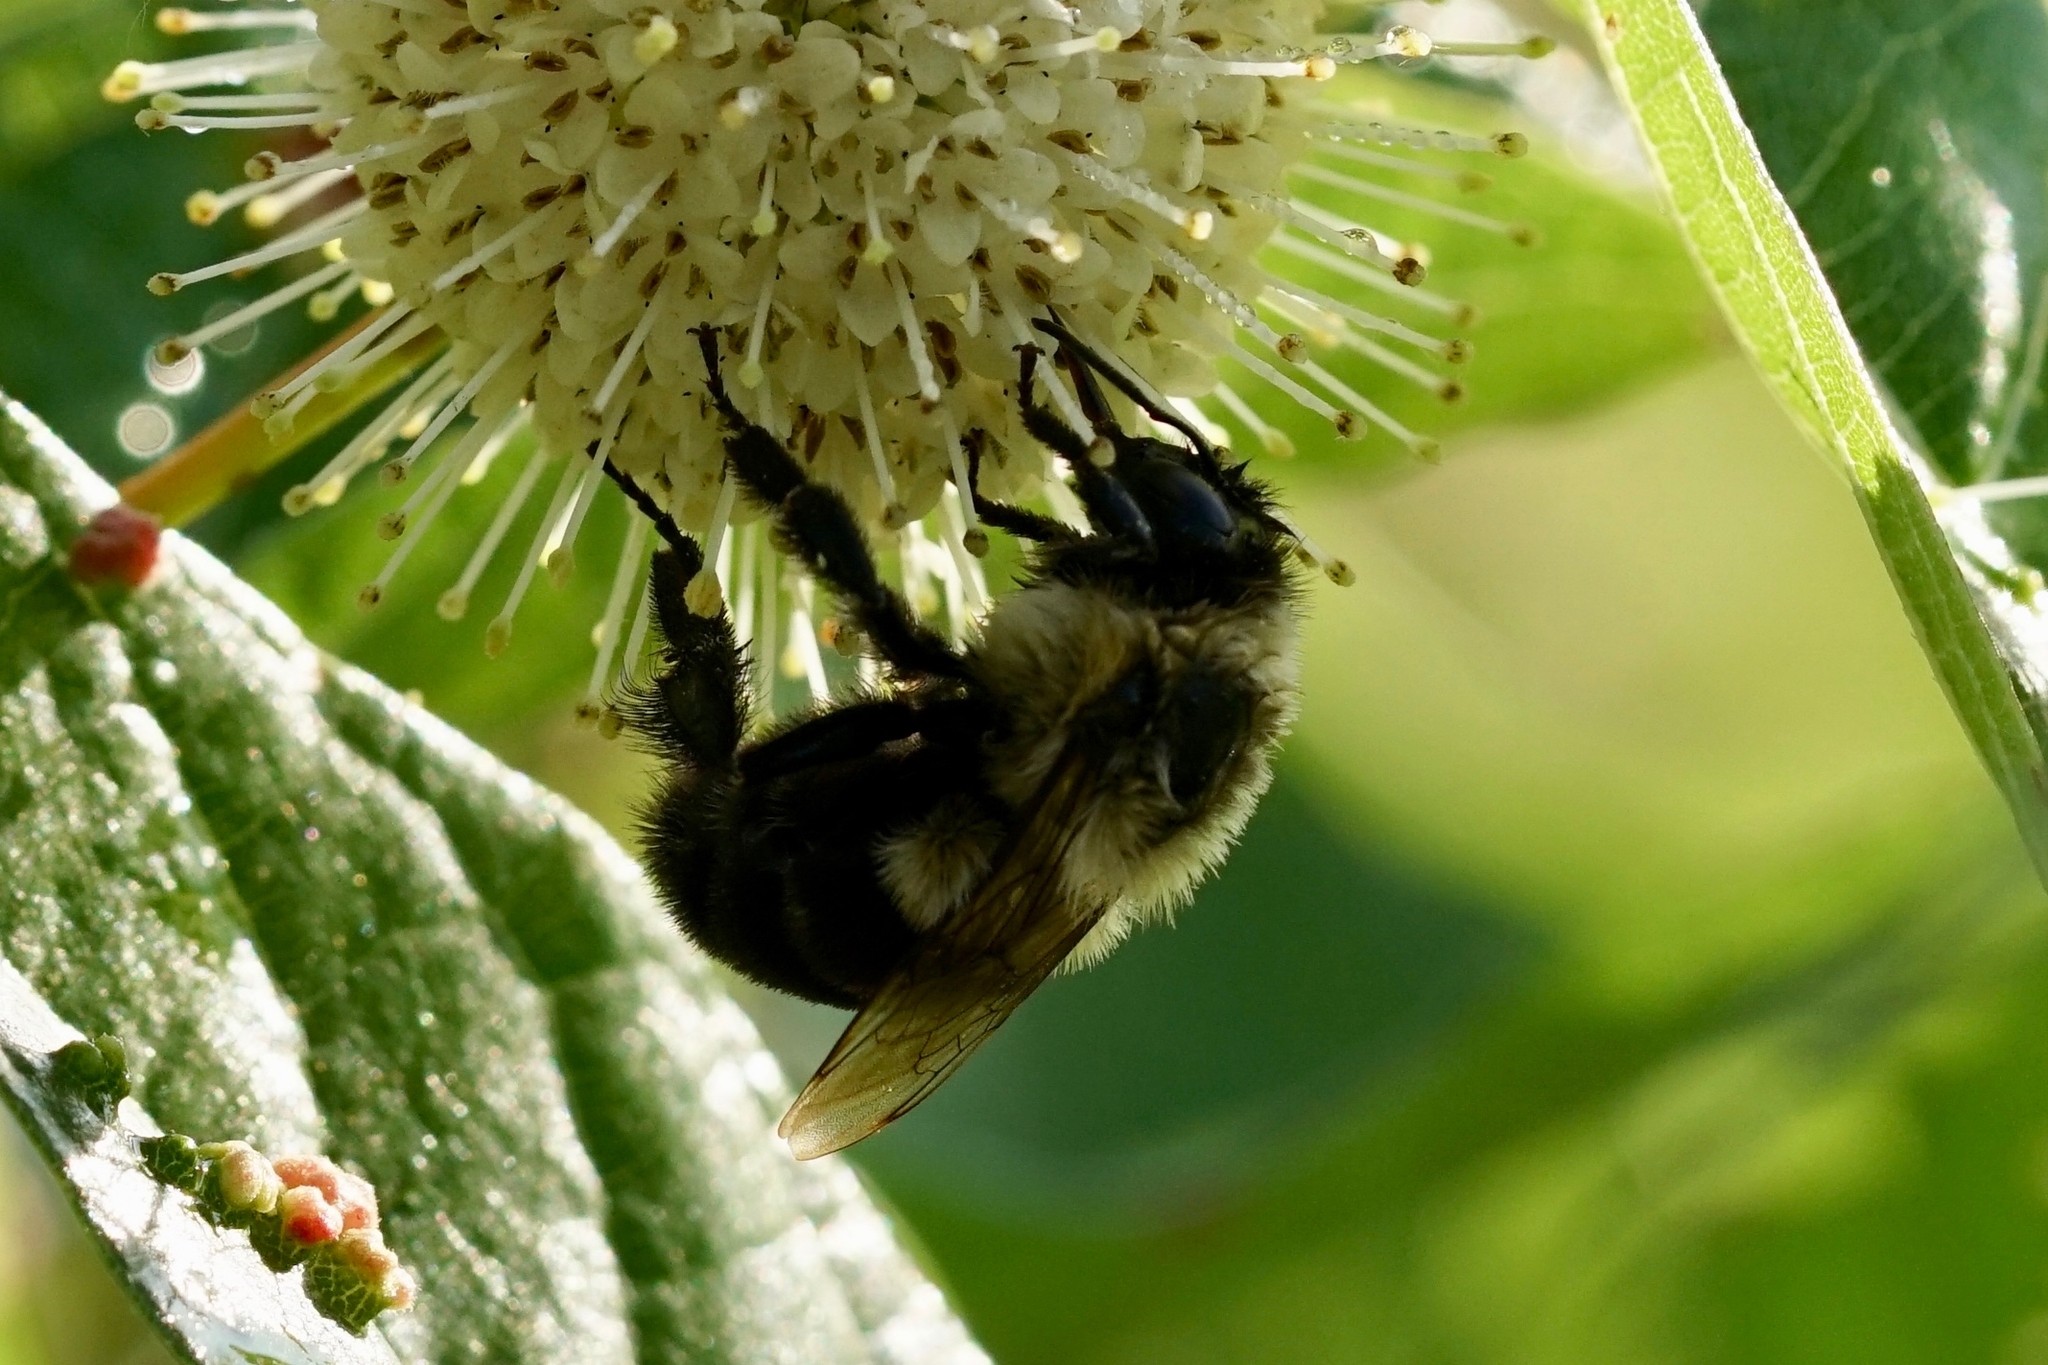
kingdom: Animalia
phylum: Arthropoda
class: Insecta
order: Hymenoptera
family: Apidae
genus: Bombus
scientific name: Bombus impatiens
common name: Common eastern bumble bee
